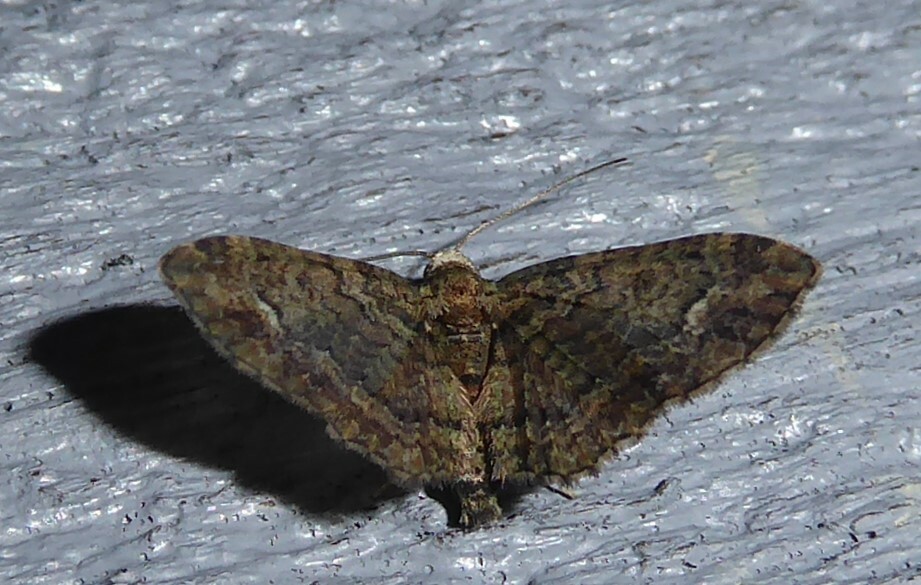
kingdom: Animalia
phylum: Arthropoda
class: Insecta
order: Lepidoptera
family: Geometridae
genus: Pasiphilodes
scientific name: Pasiphilodes testulata
